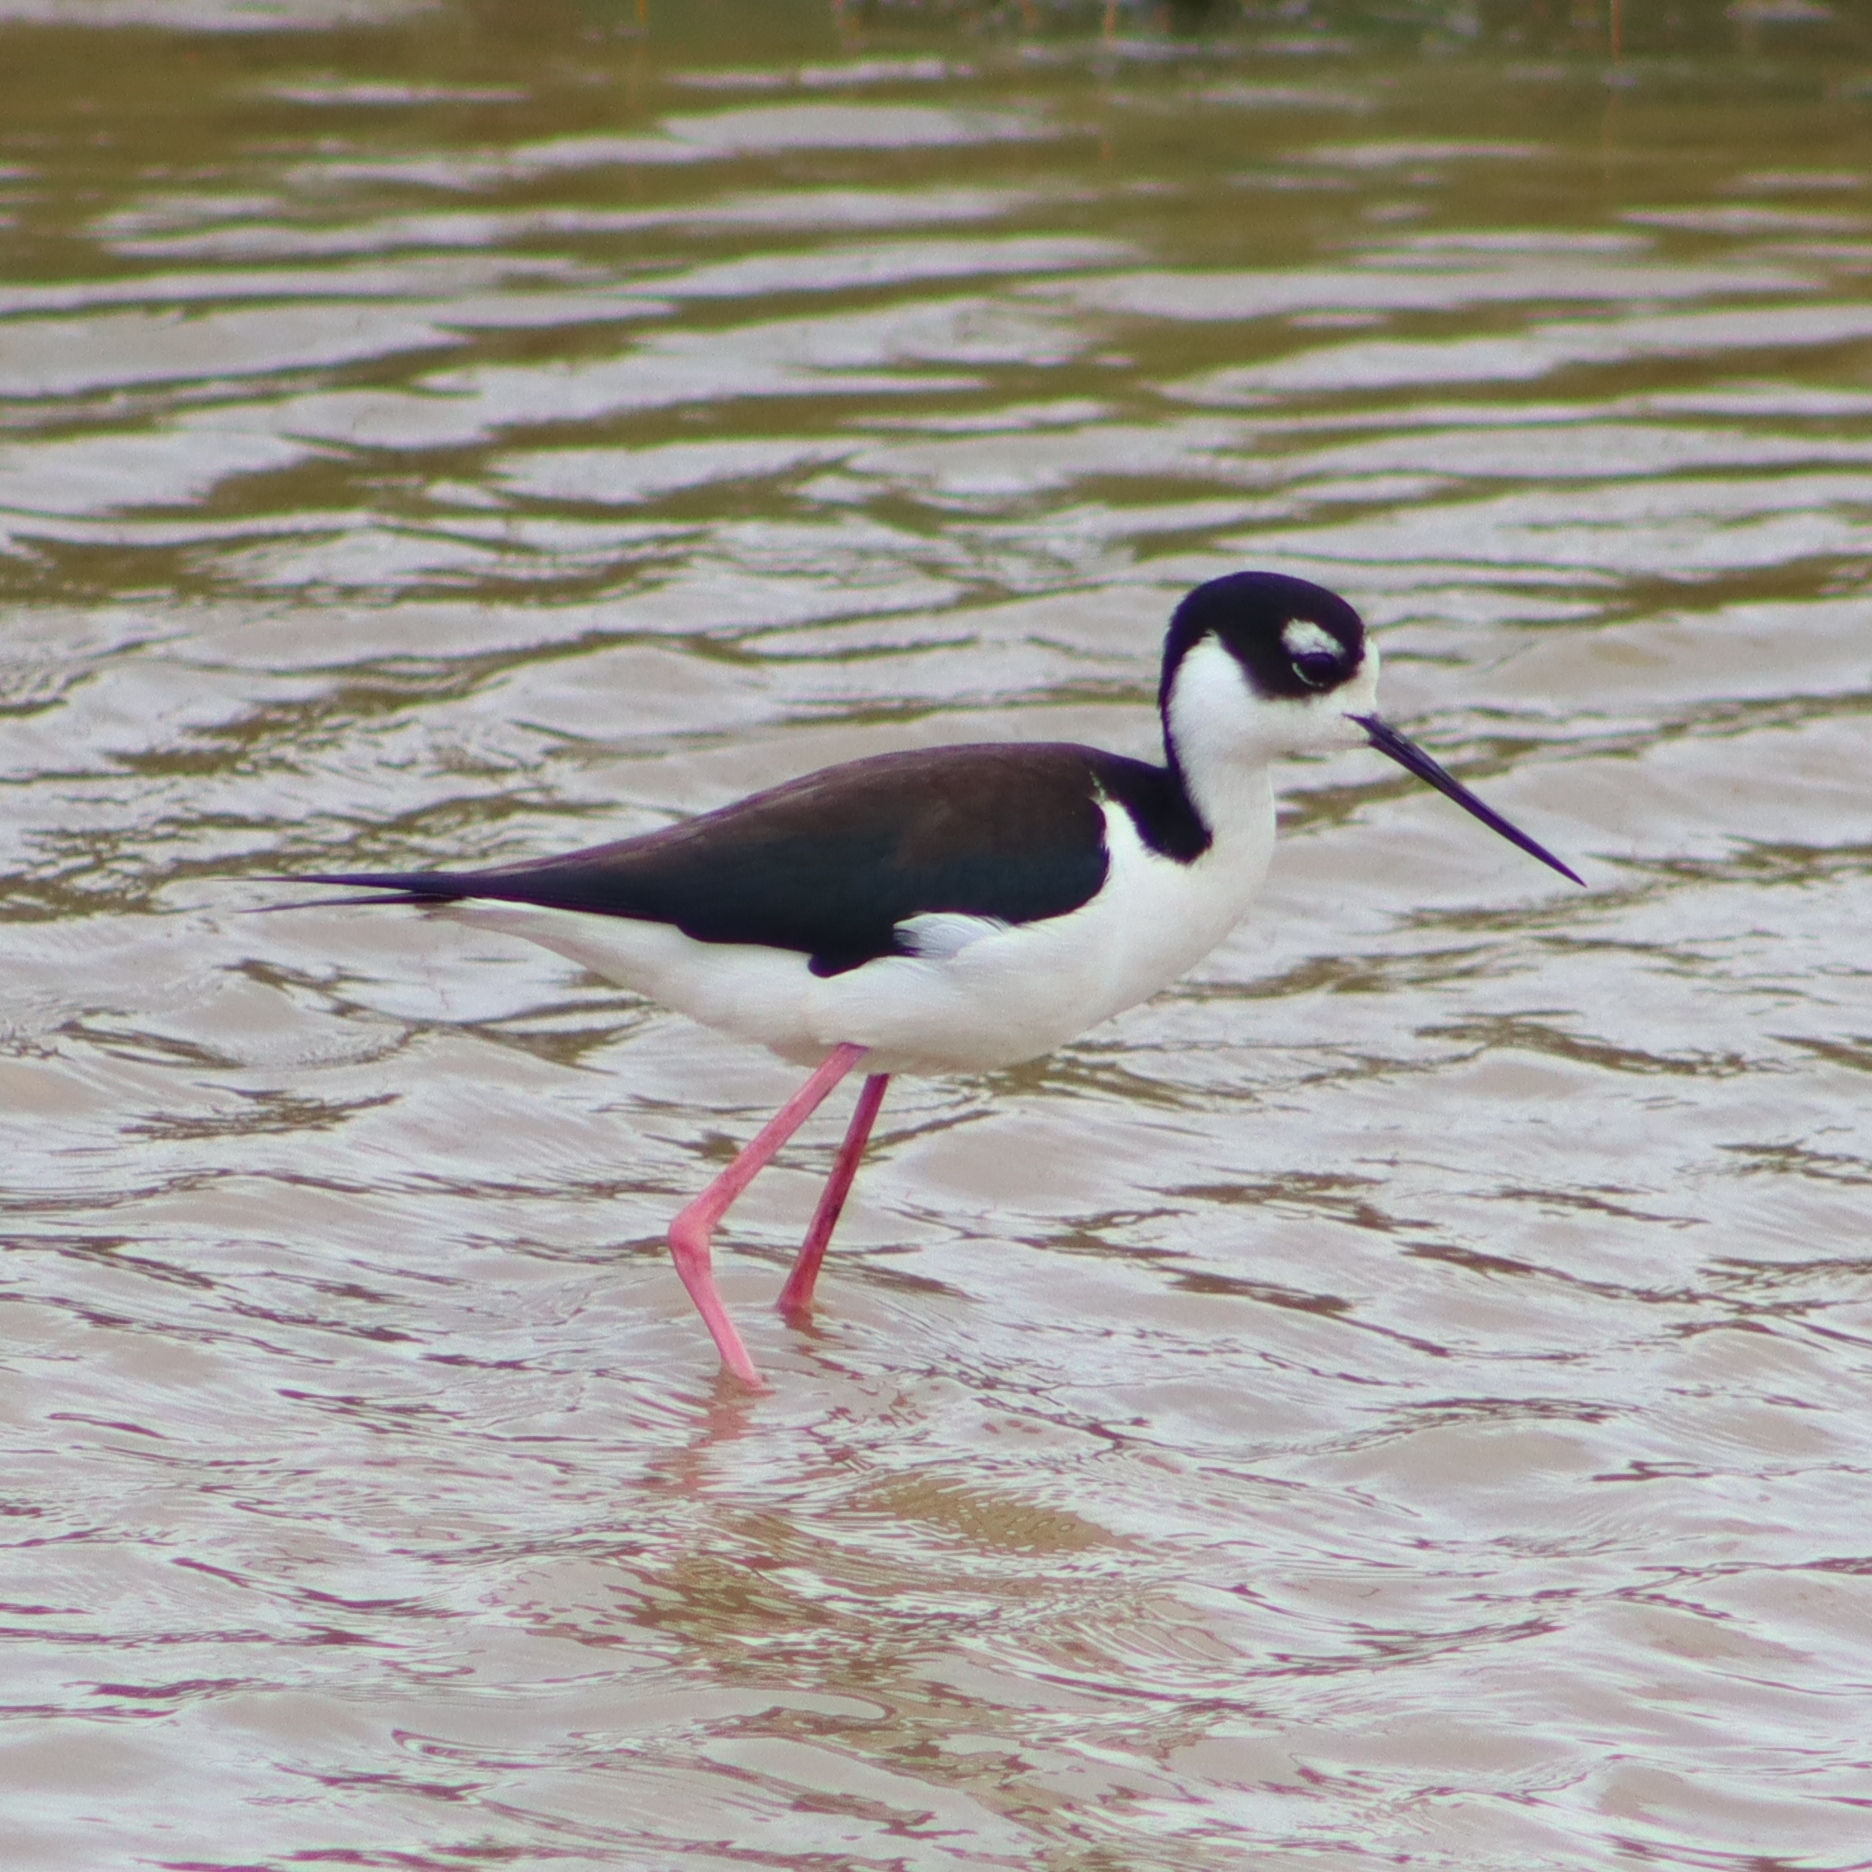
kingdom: Animalia
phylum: Chordata
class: Aves
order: Charadriiformes
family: Recurvirostridae
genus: Himantopus
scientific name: Himantopus mexicanus
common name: Black-necked stilt
